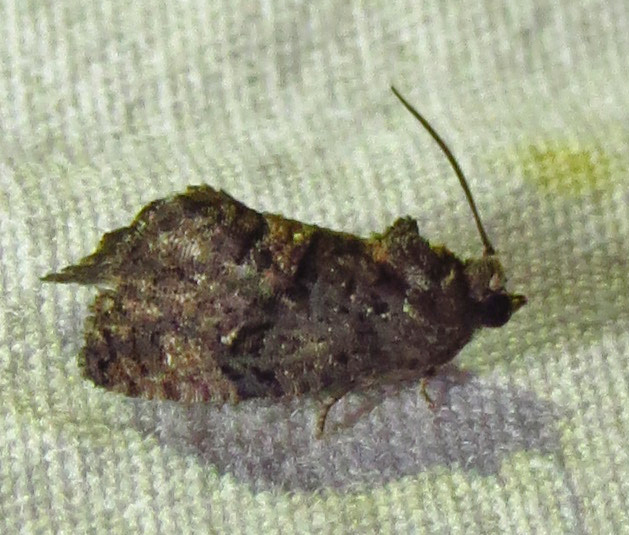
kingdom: Animalia
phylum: Arthropoda
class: Insecta
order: Lepidoptera
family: Tortricidae
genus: Gymnandrosoma
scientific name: Gymnandrosoma punctidiscanum
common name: Dotted ecdytolopha moth
